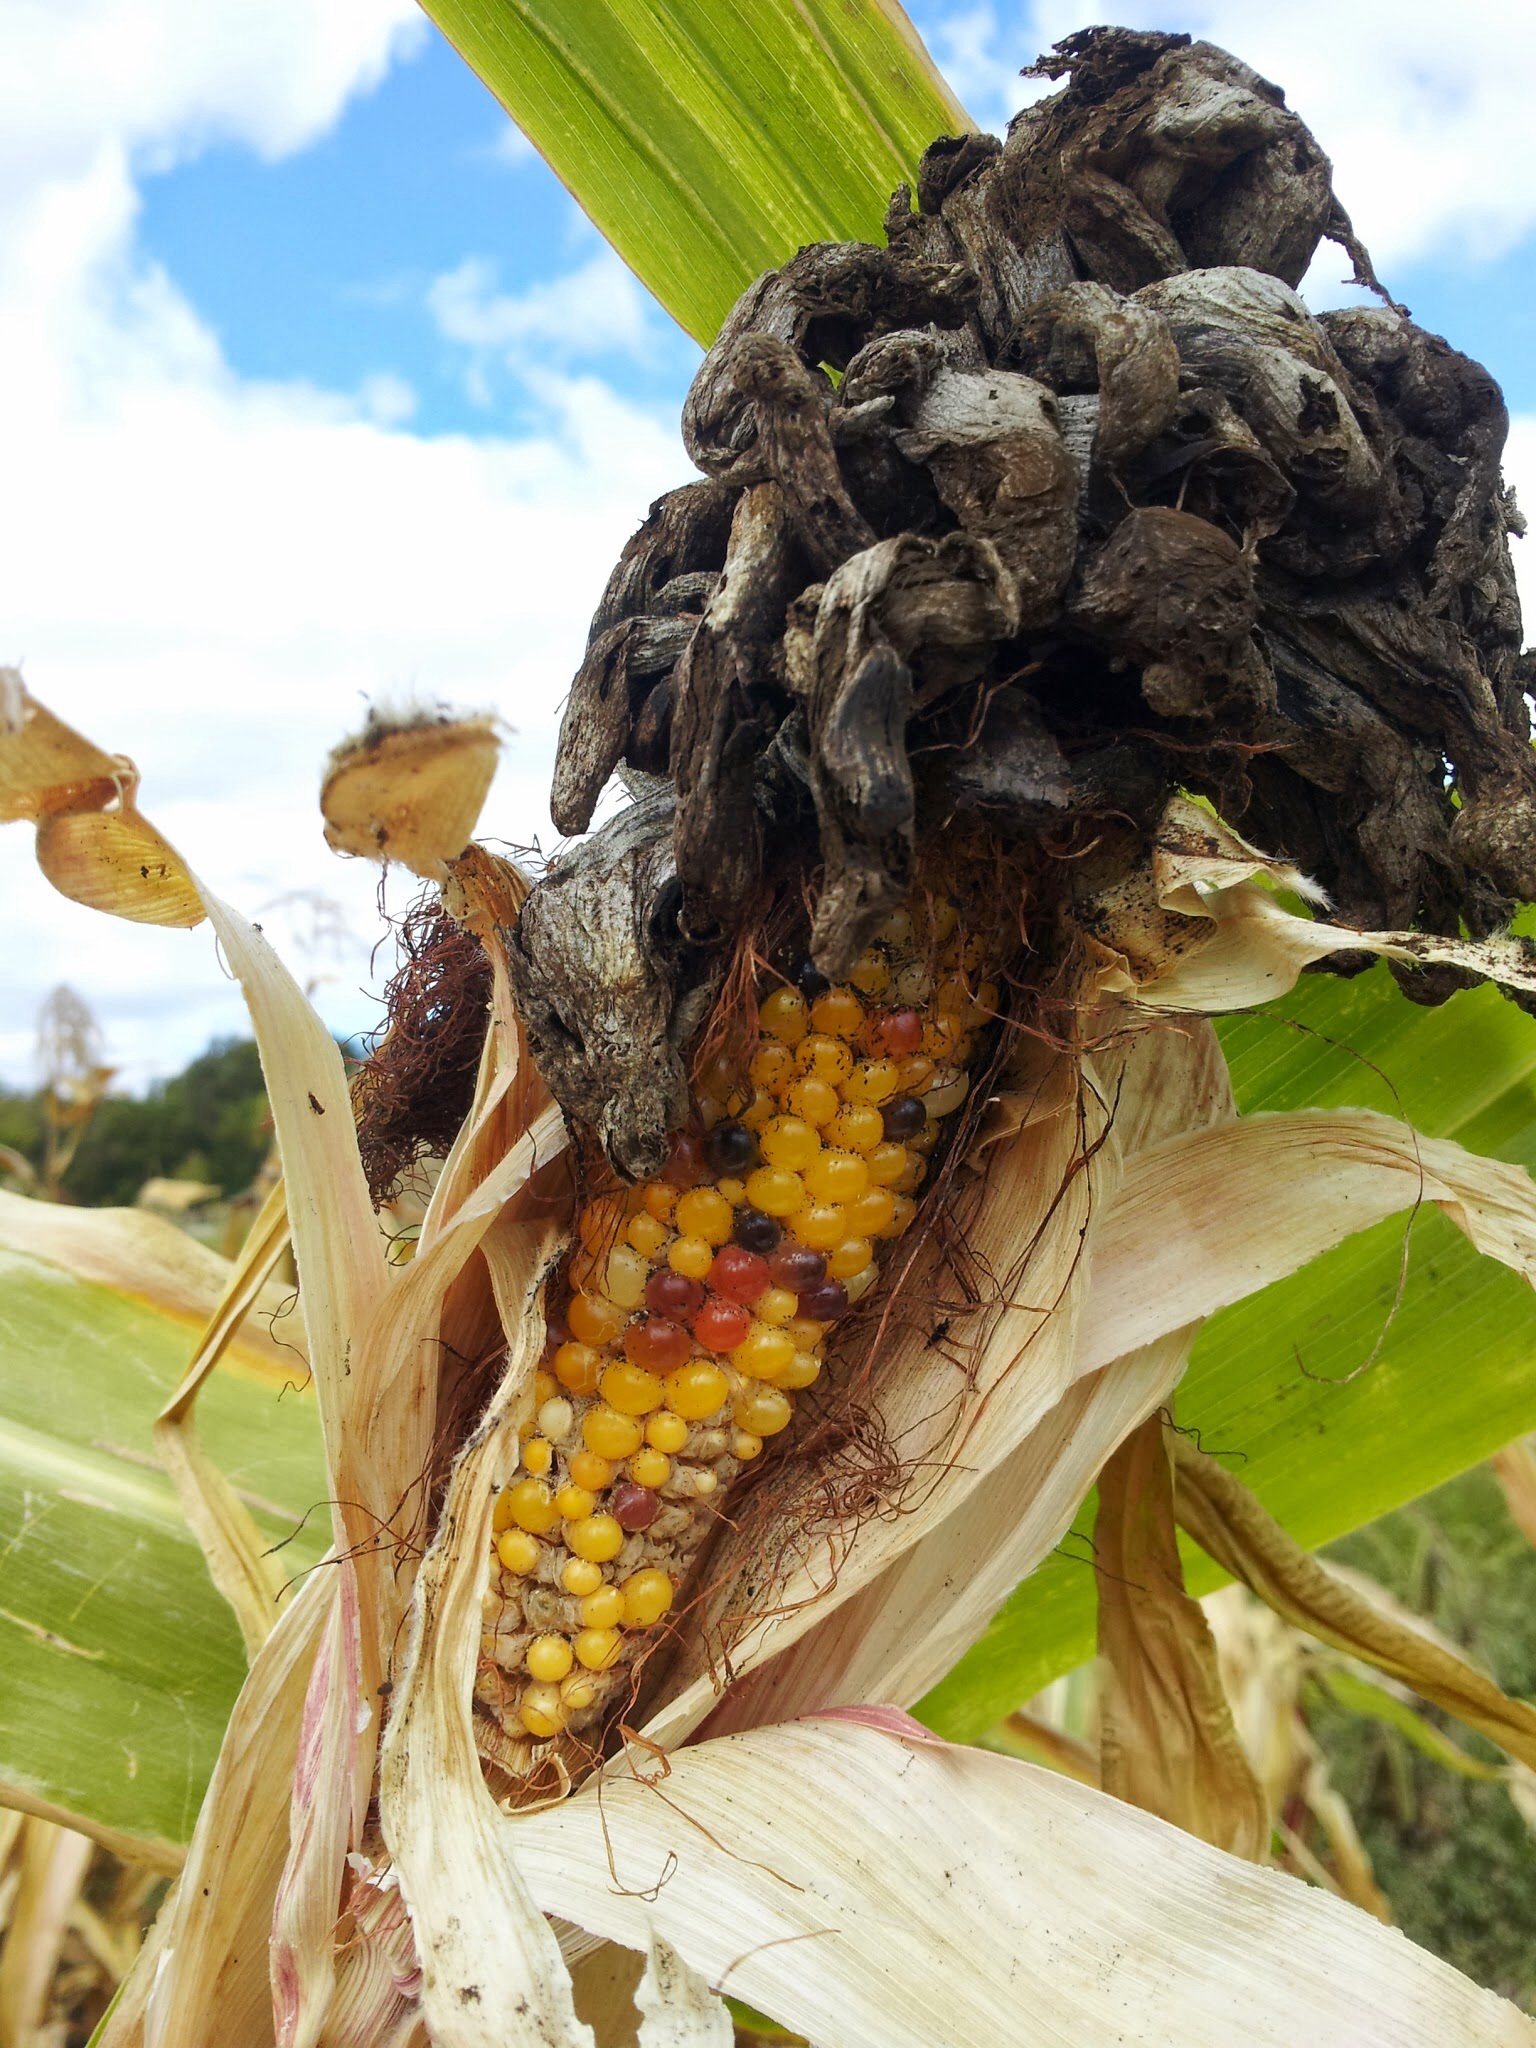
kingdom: Fungi
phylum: Basidiomycota
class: Ustilaginomycetes
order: Ustilaginales
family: Ustilaginaceae
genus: Mycosarcoma
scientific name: Mycosarcoma maydis
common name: Corn smut
